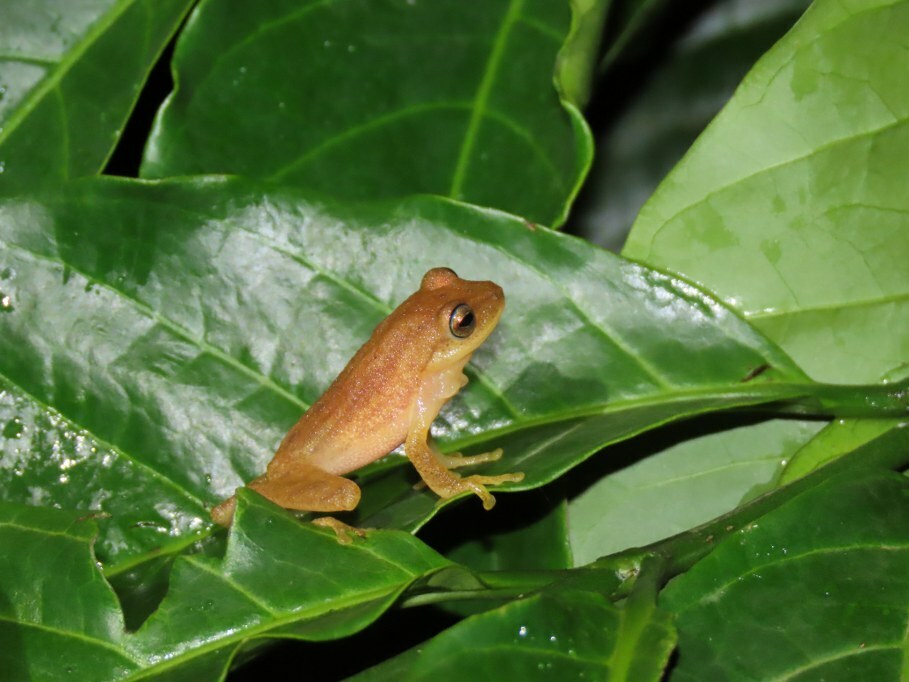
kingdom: Animalia
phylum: Chordata
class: Amphibia
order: Anura
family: Rhacophoridae
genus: Raorchestes
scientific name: Raorchestes luteolus
